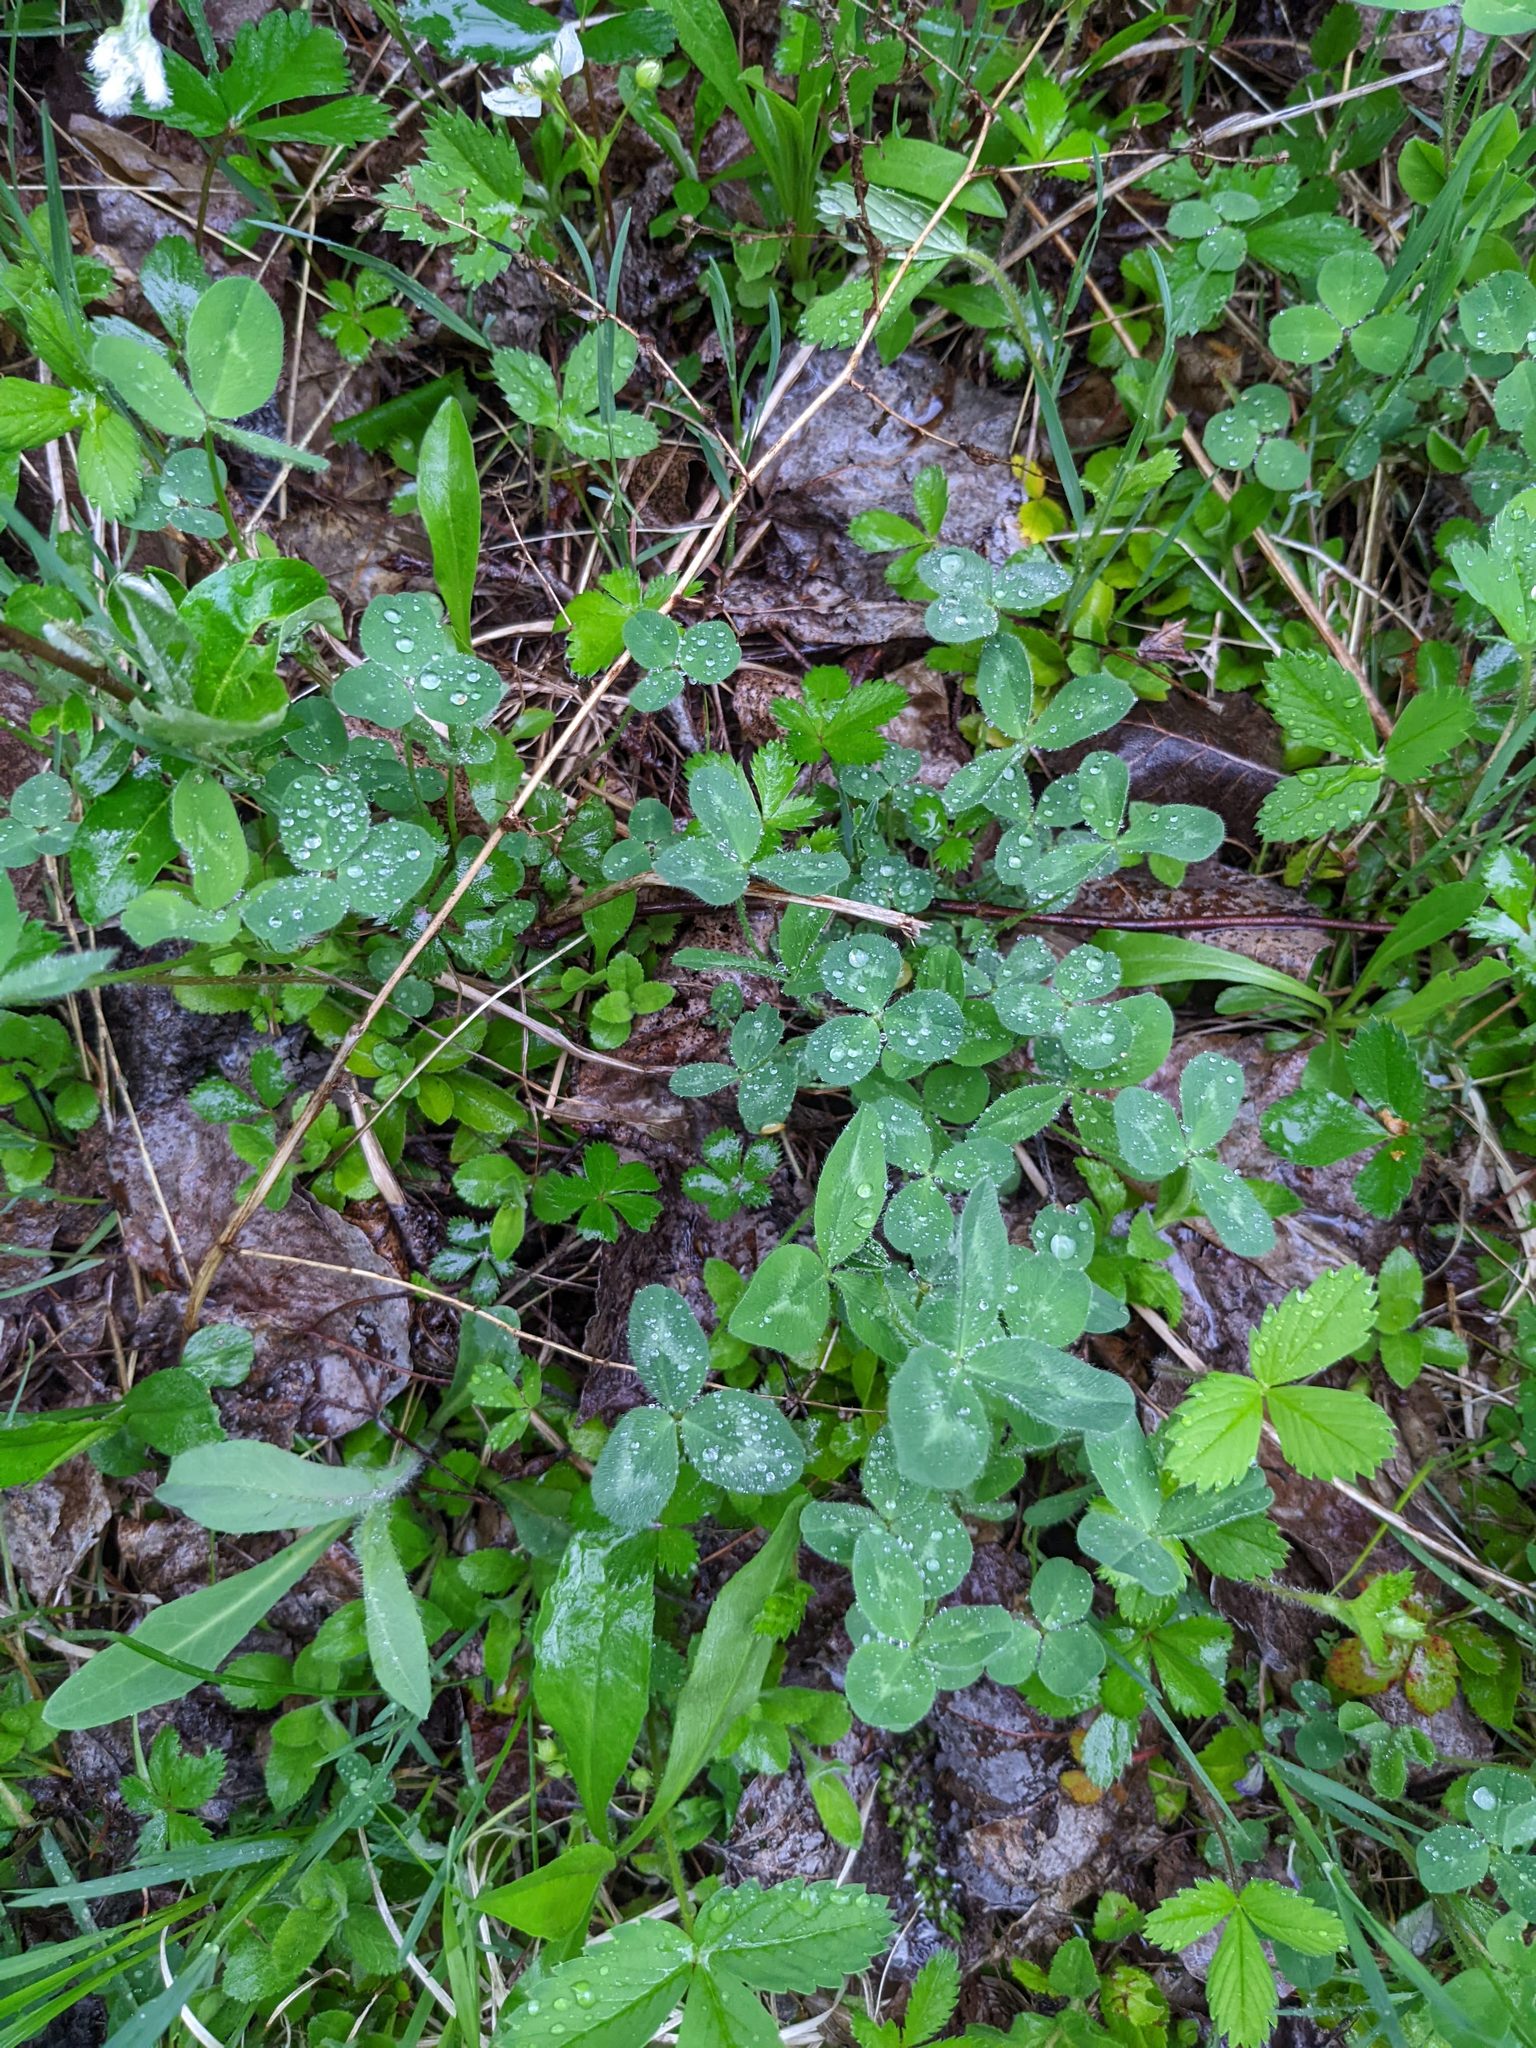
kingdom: Plantae
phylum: Tracheophyta
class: Magnoliopsida
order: Fabales
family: Fabaceae
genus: Trifolium
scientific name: Trifolium pratense
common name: Red clover
